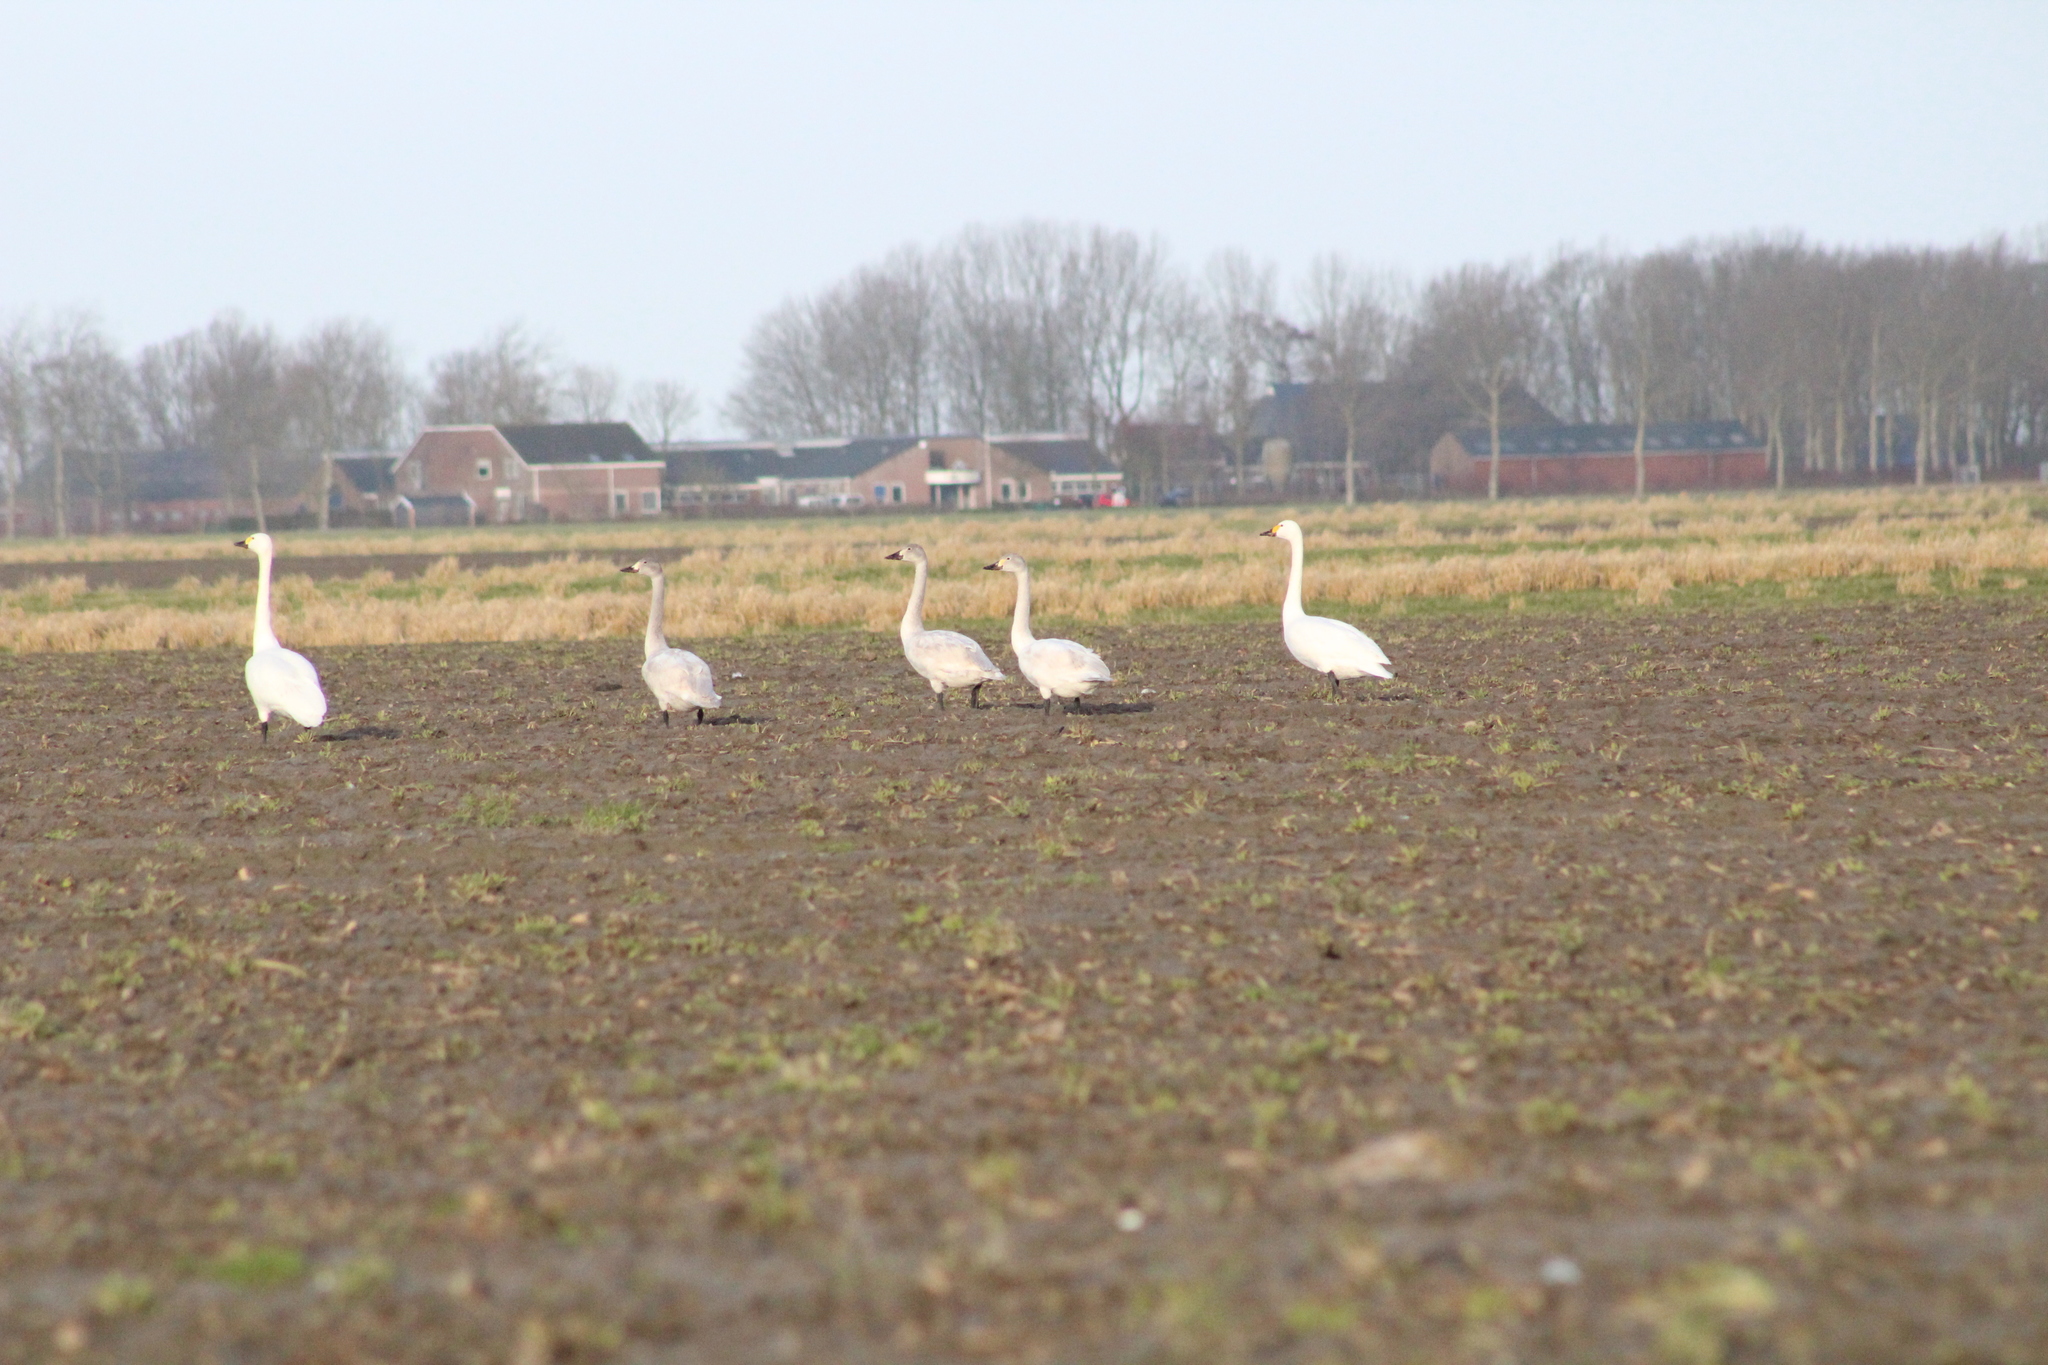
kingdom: Animalia
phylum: Chordata
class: Aves
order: Anseriformes
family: Anatidae
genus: Cygnus
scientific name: Cygnus columbianus
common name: Tundra swan
